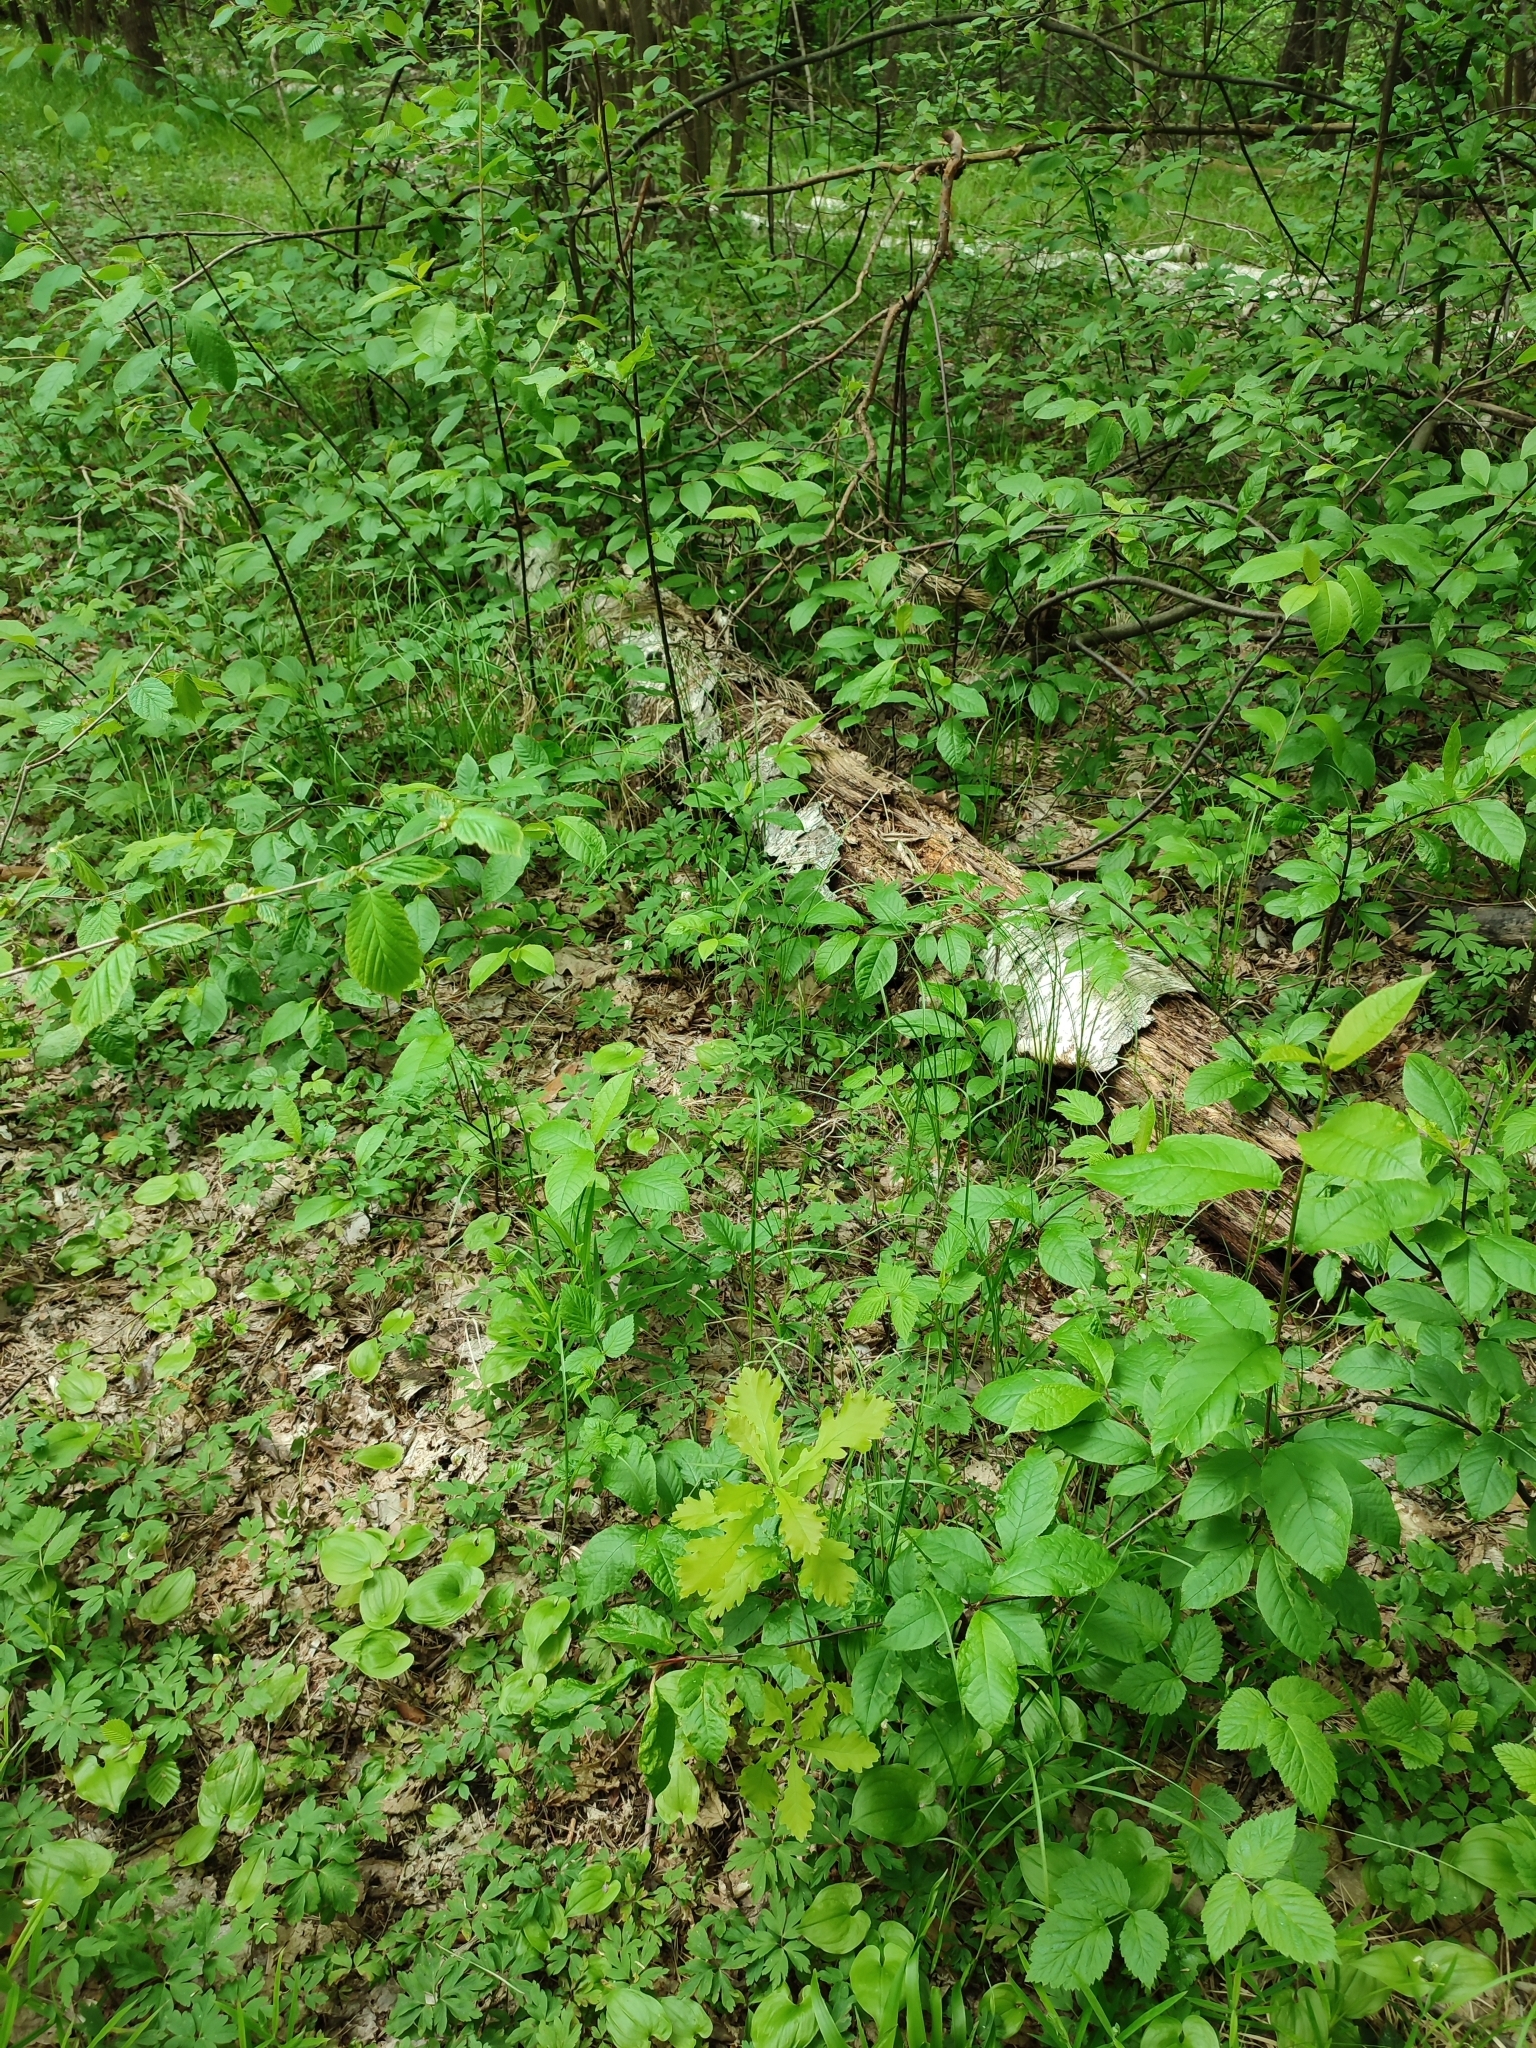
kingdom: Plantae
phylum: Tracheophyta
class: Magnoliopsida
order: Fagales
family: Fagaceae
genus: Quercus
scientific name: Quercus robur
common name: Pedunculate oak
